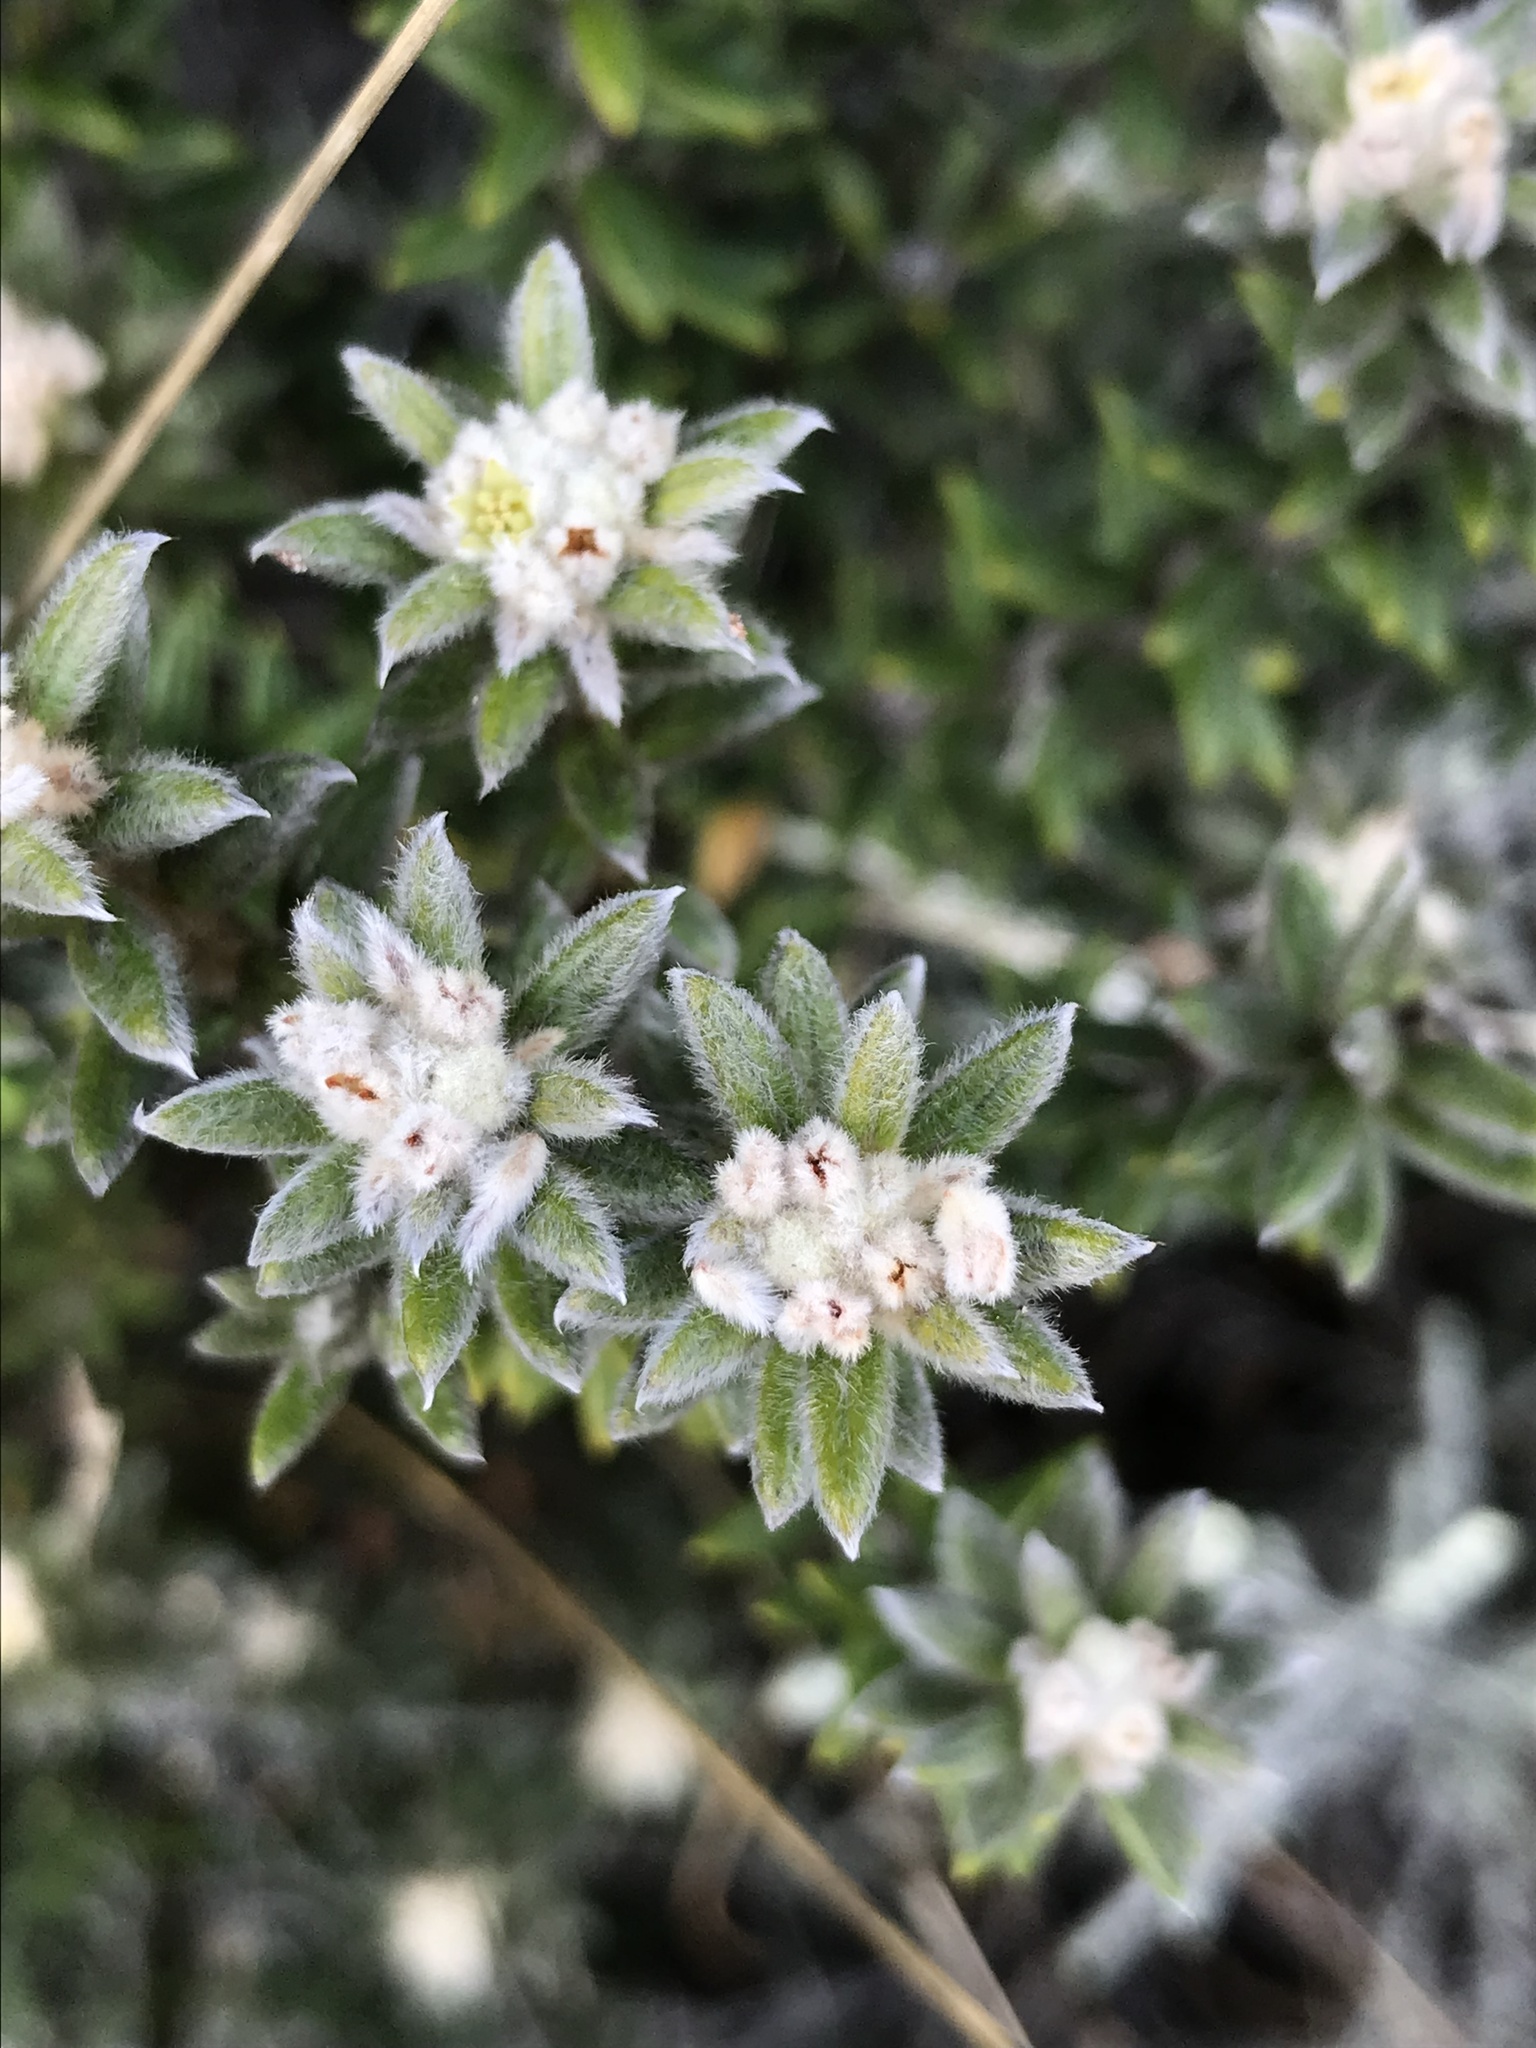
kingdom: Plantae
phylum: Tracheophyta
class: Magnoliopsida
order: Rosales
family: Rhamnaceae
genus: Phylica
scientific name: Phylica nitida
